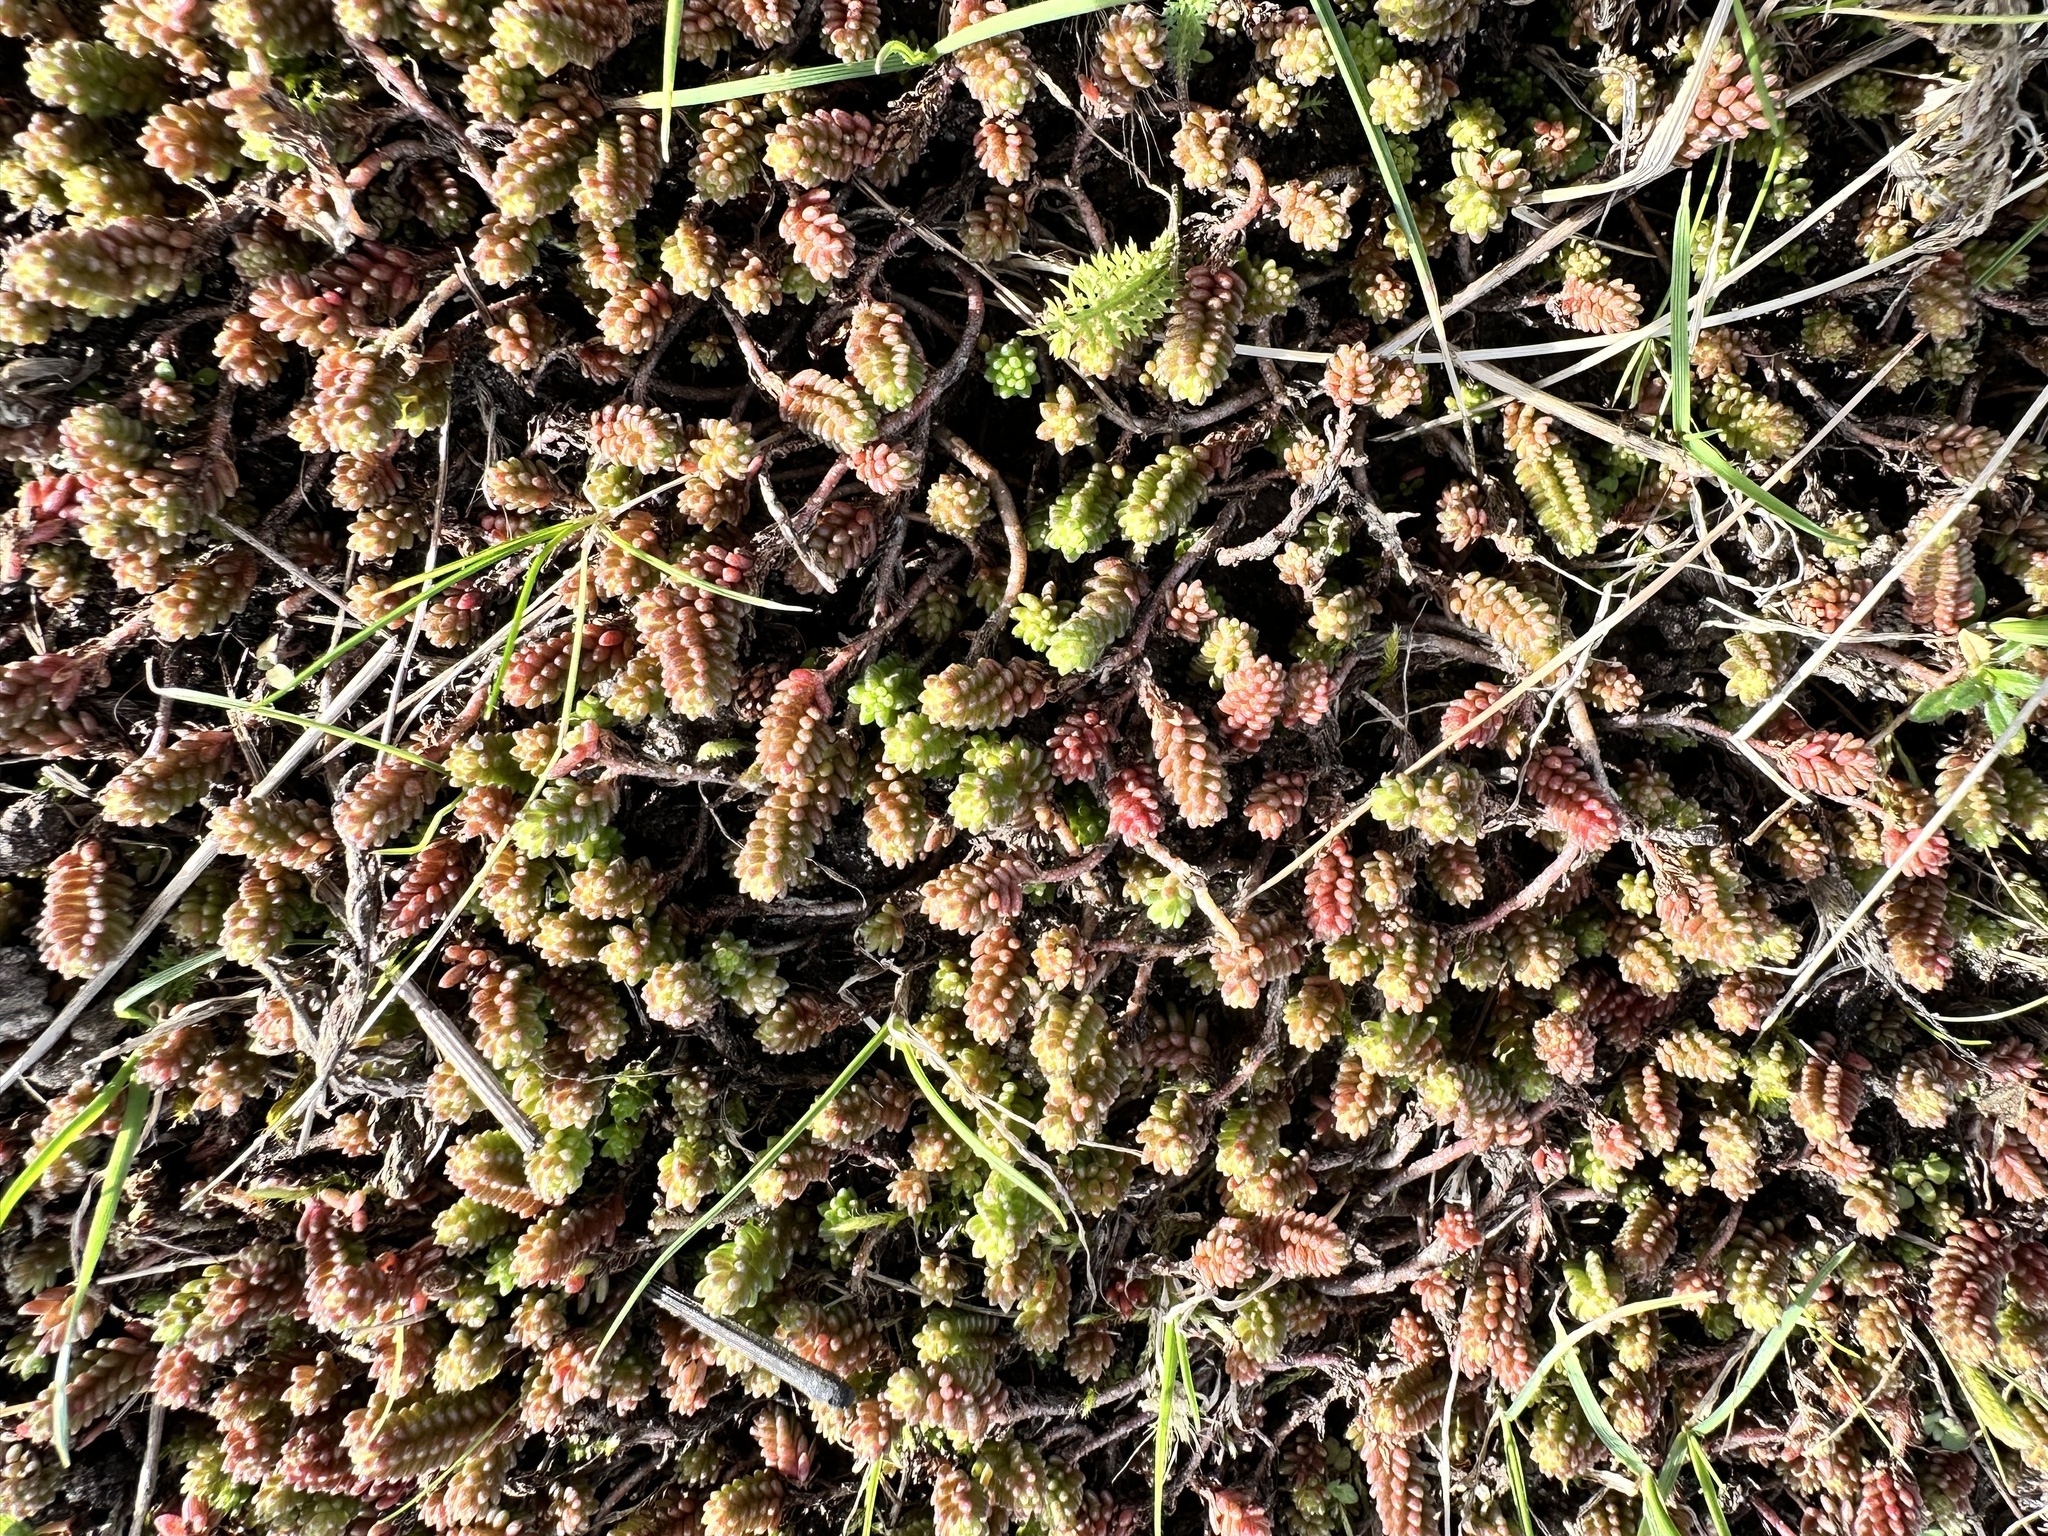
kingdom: Plantae
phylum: Tracheophyta
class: Magnoliopsida
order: Saxifragales
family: Crassulaceae
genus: Sedum
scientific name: Sedum sexangulare
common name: Tasteless stonecrop
